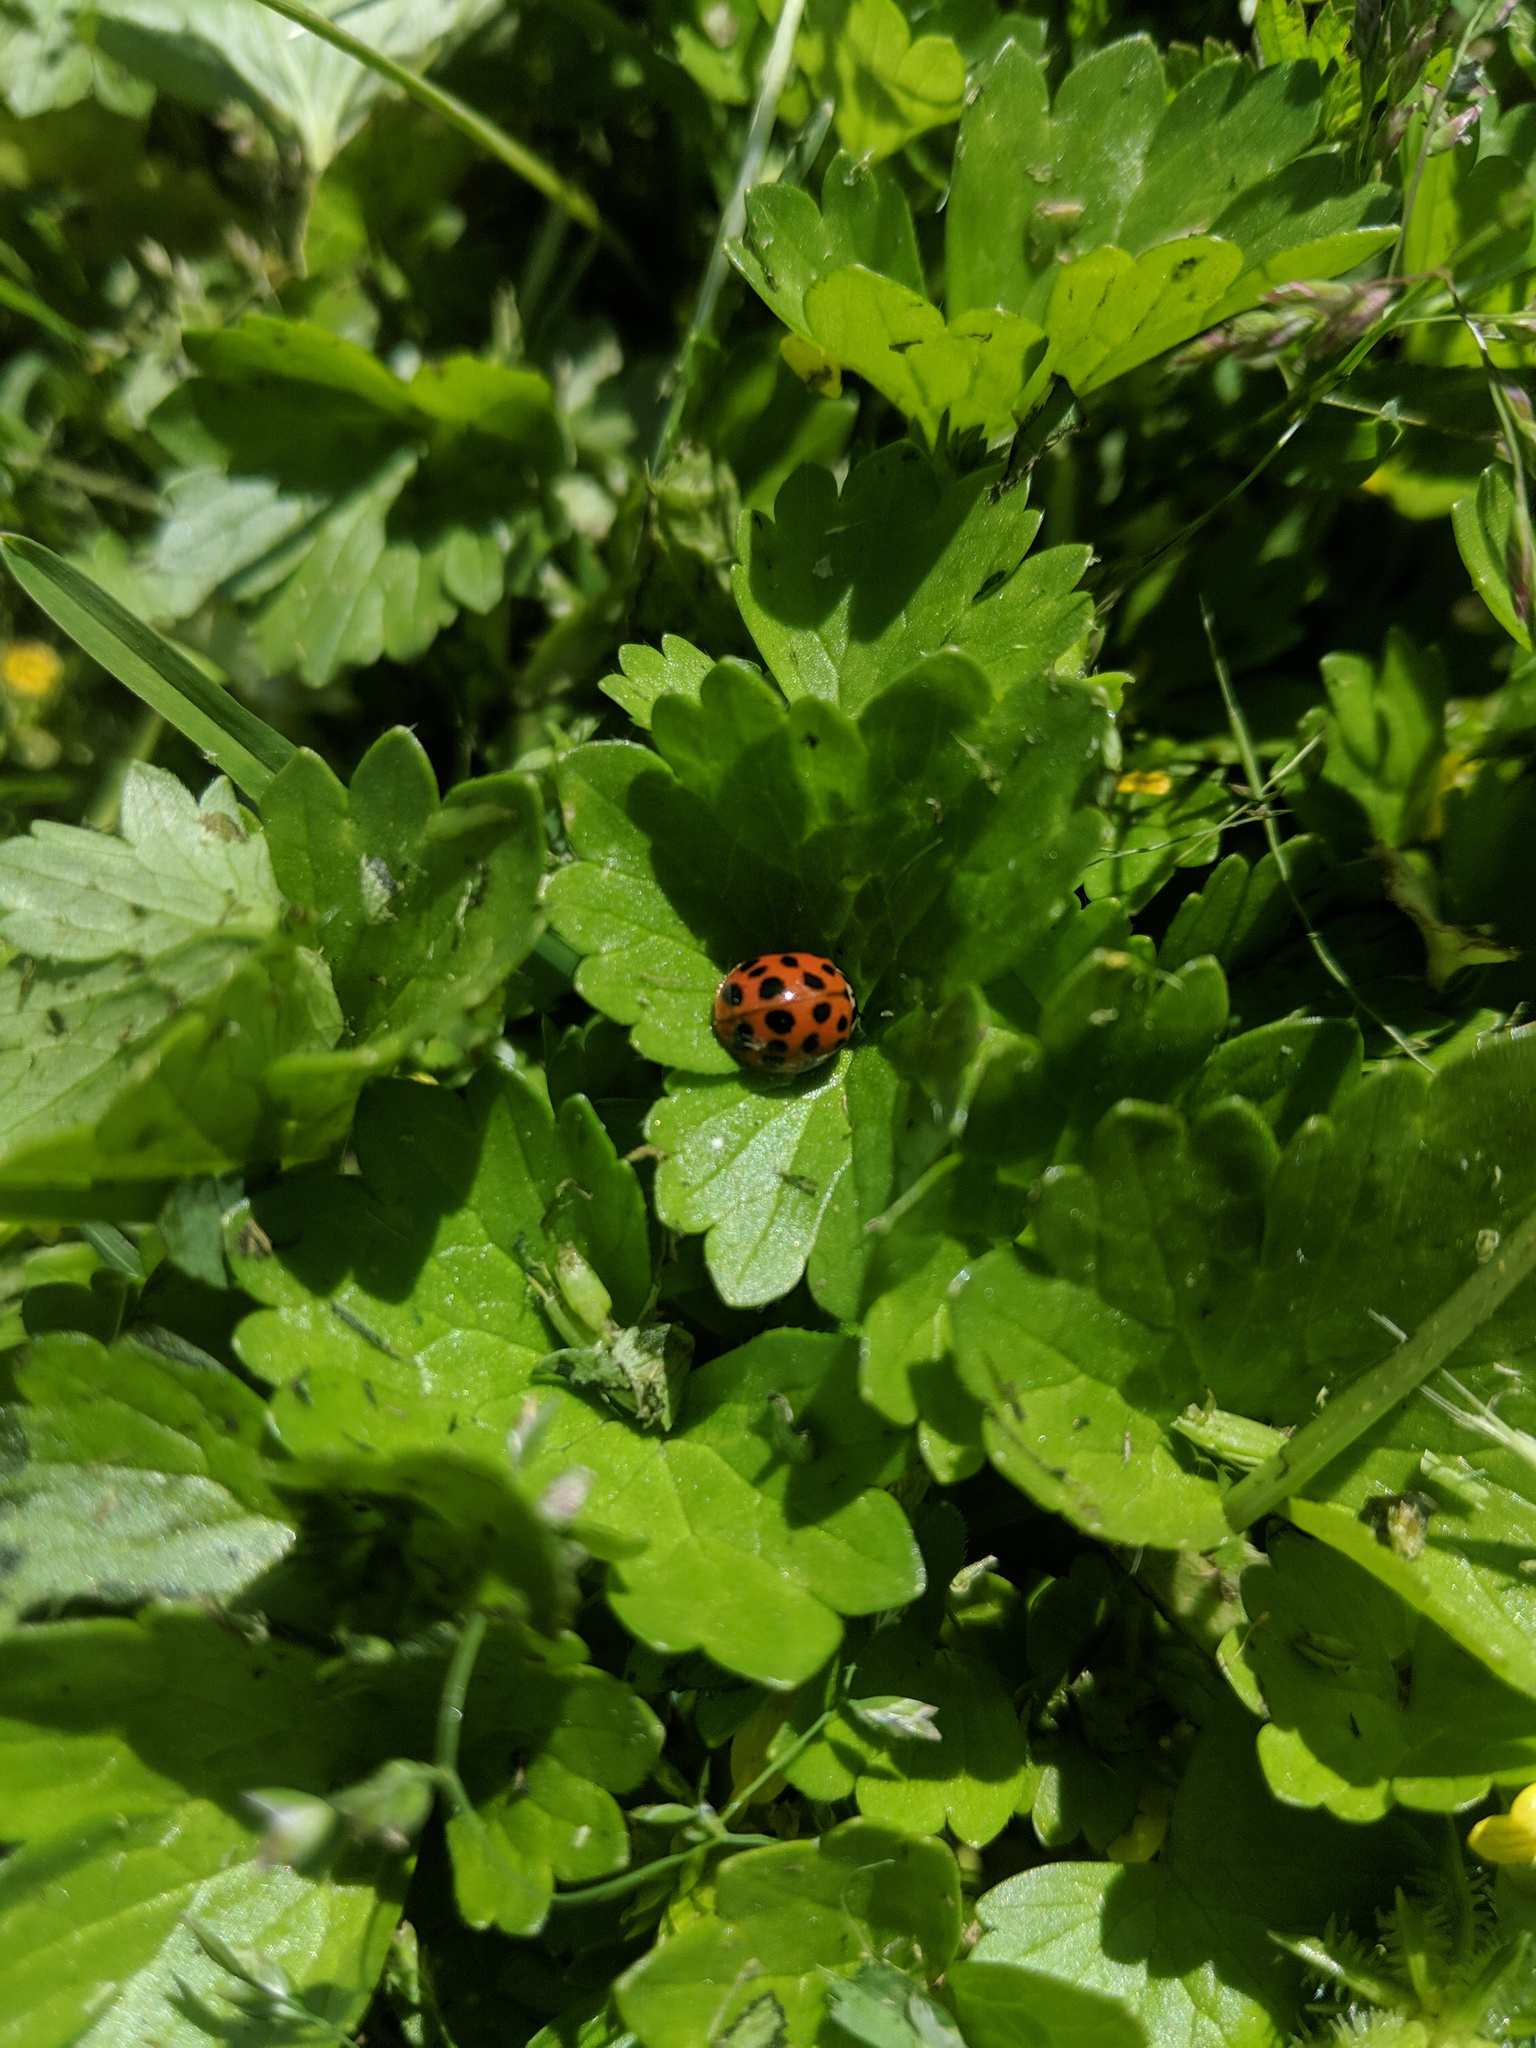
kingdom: Animalia
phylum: Arthropoda
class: Insecta
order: Coleoptera
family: Coccinellidae
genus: Harmonia
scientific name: Harmonia axyridis
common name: Harlequin ladybird
